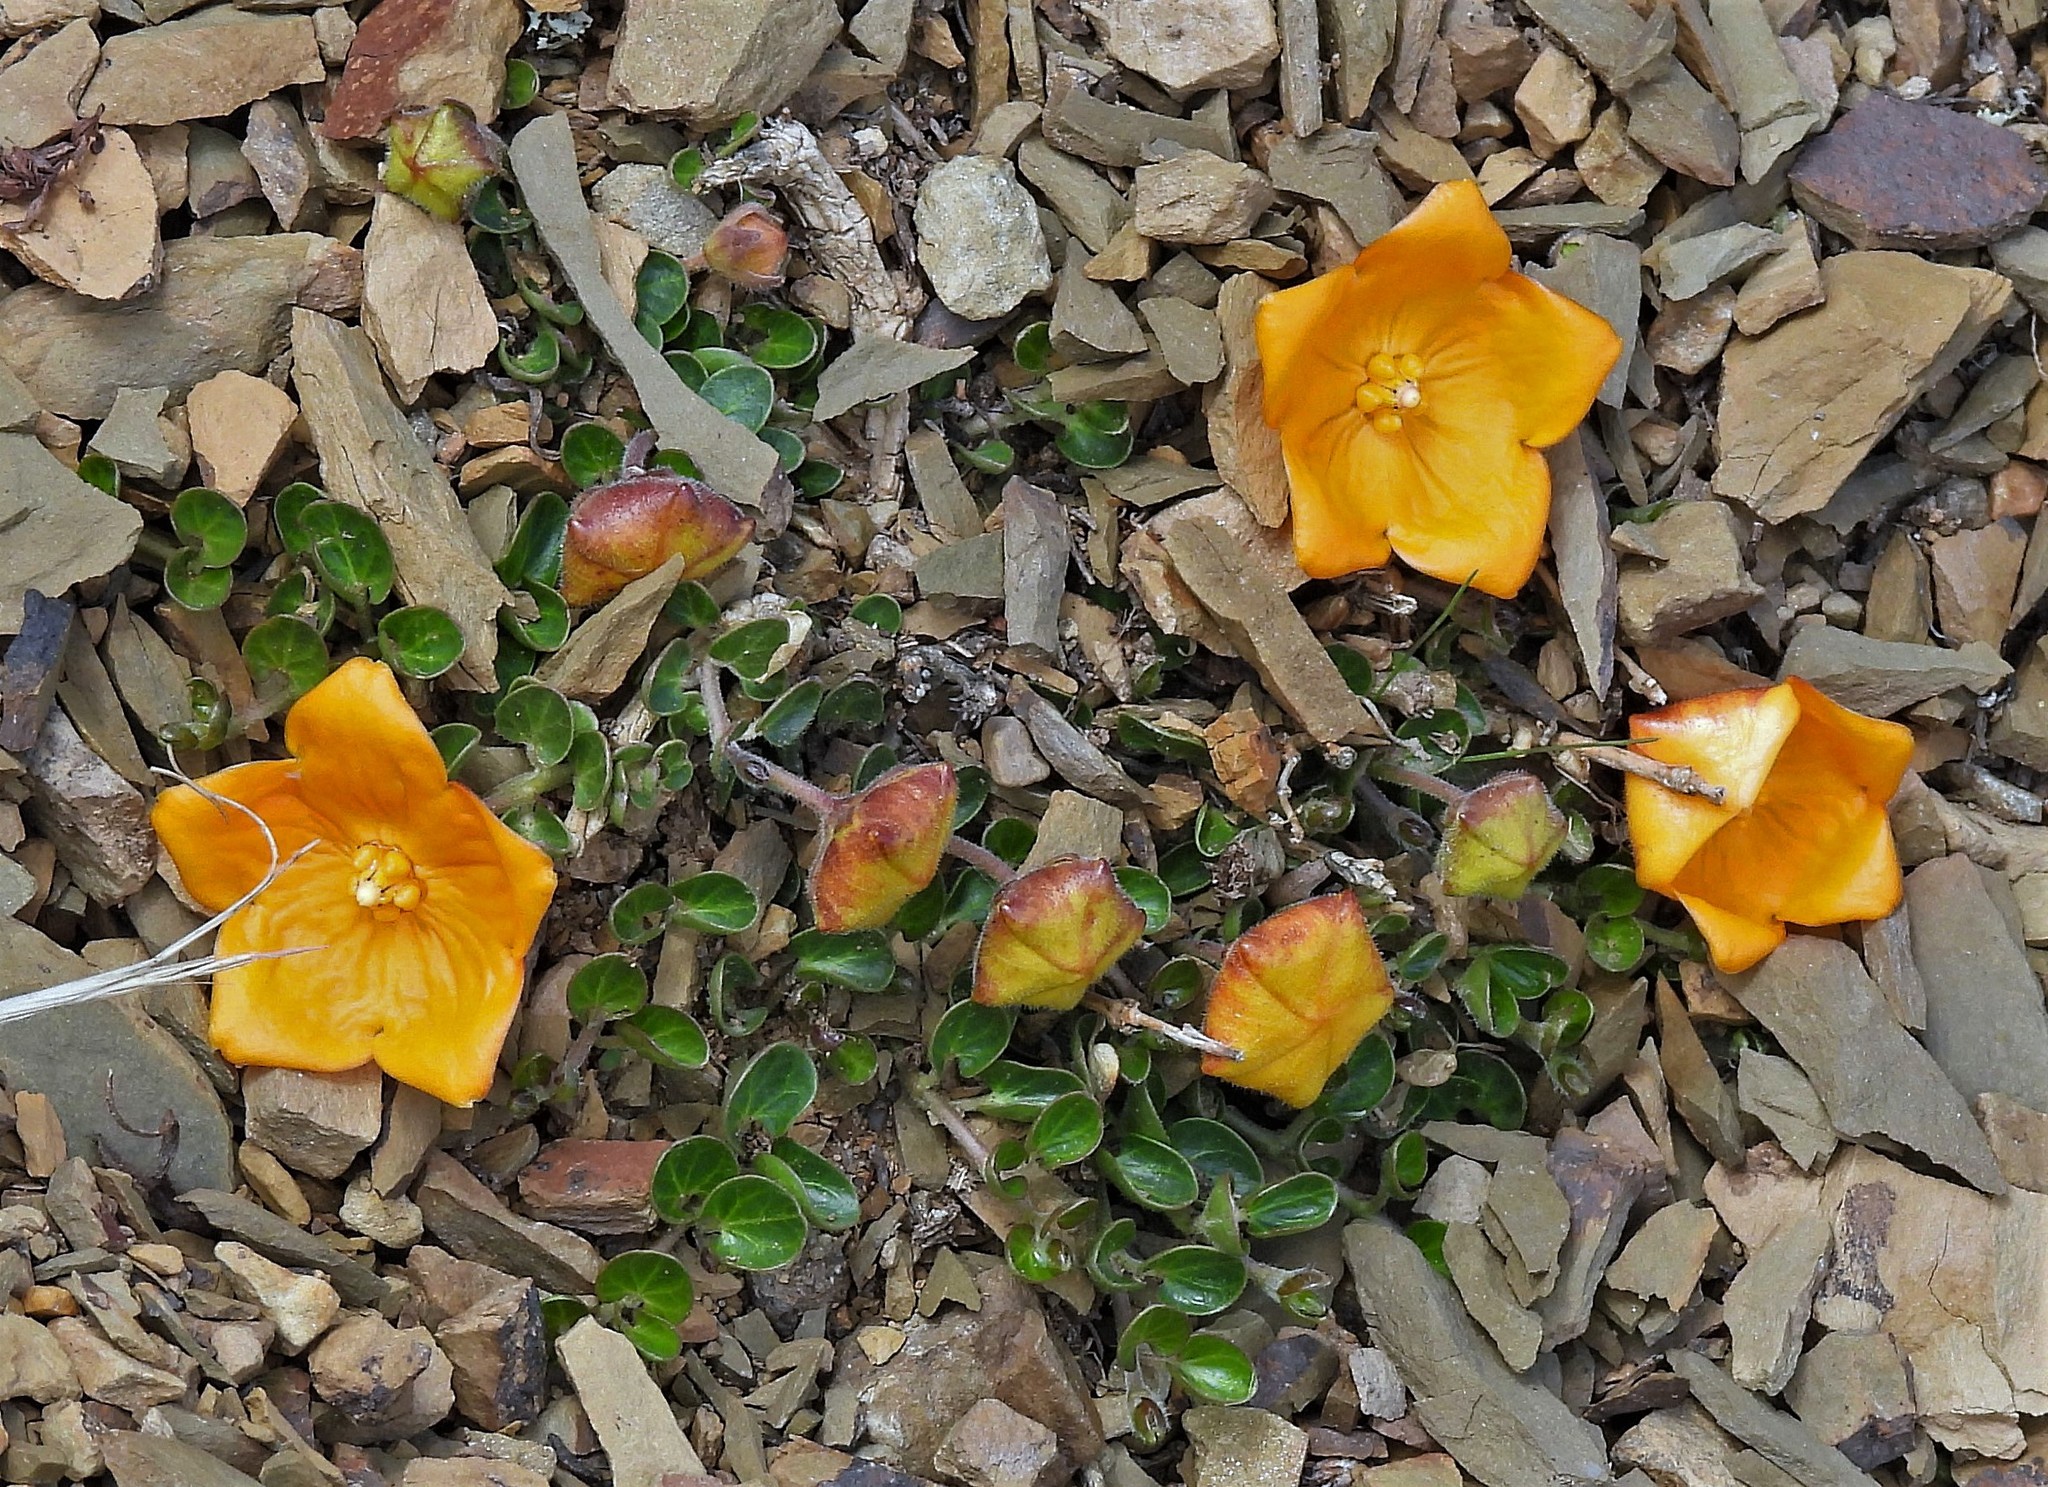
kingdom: Plantae
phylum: Tracheophyta
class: Magnoliopsida
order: Gentianales
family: Apocynaceae
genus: Philibertia
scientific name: Philibertia lysimachioides
